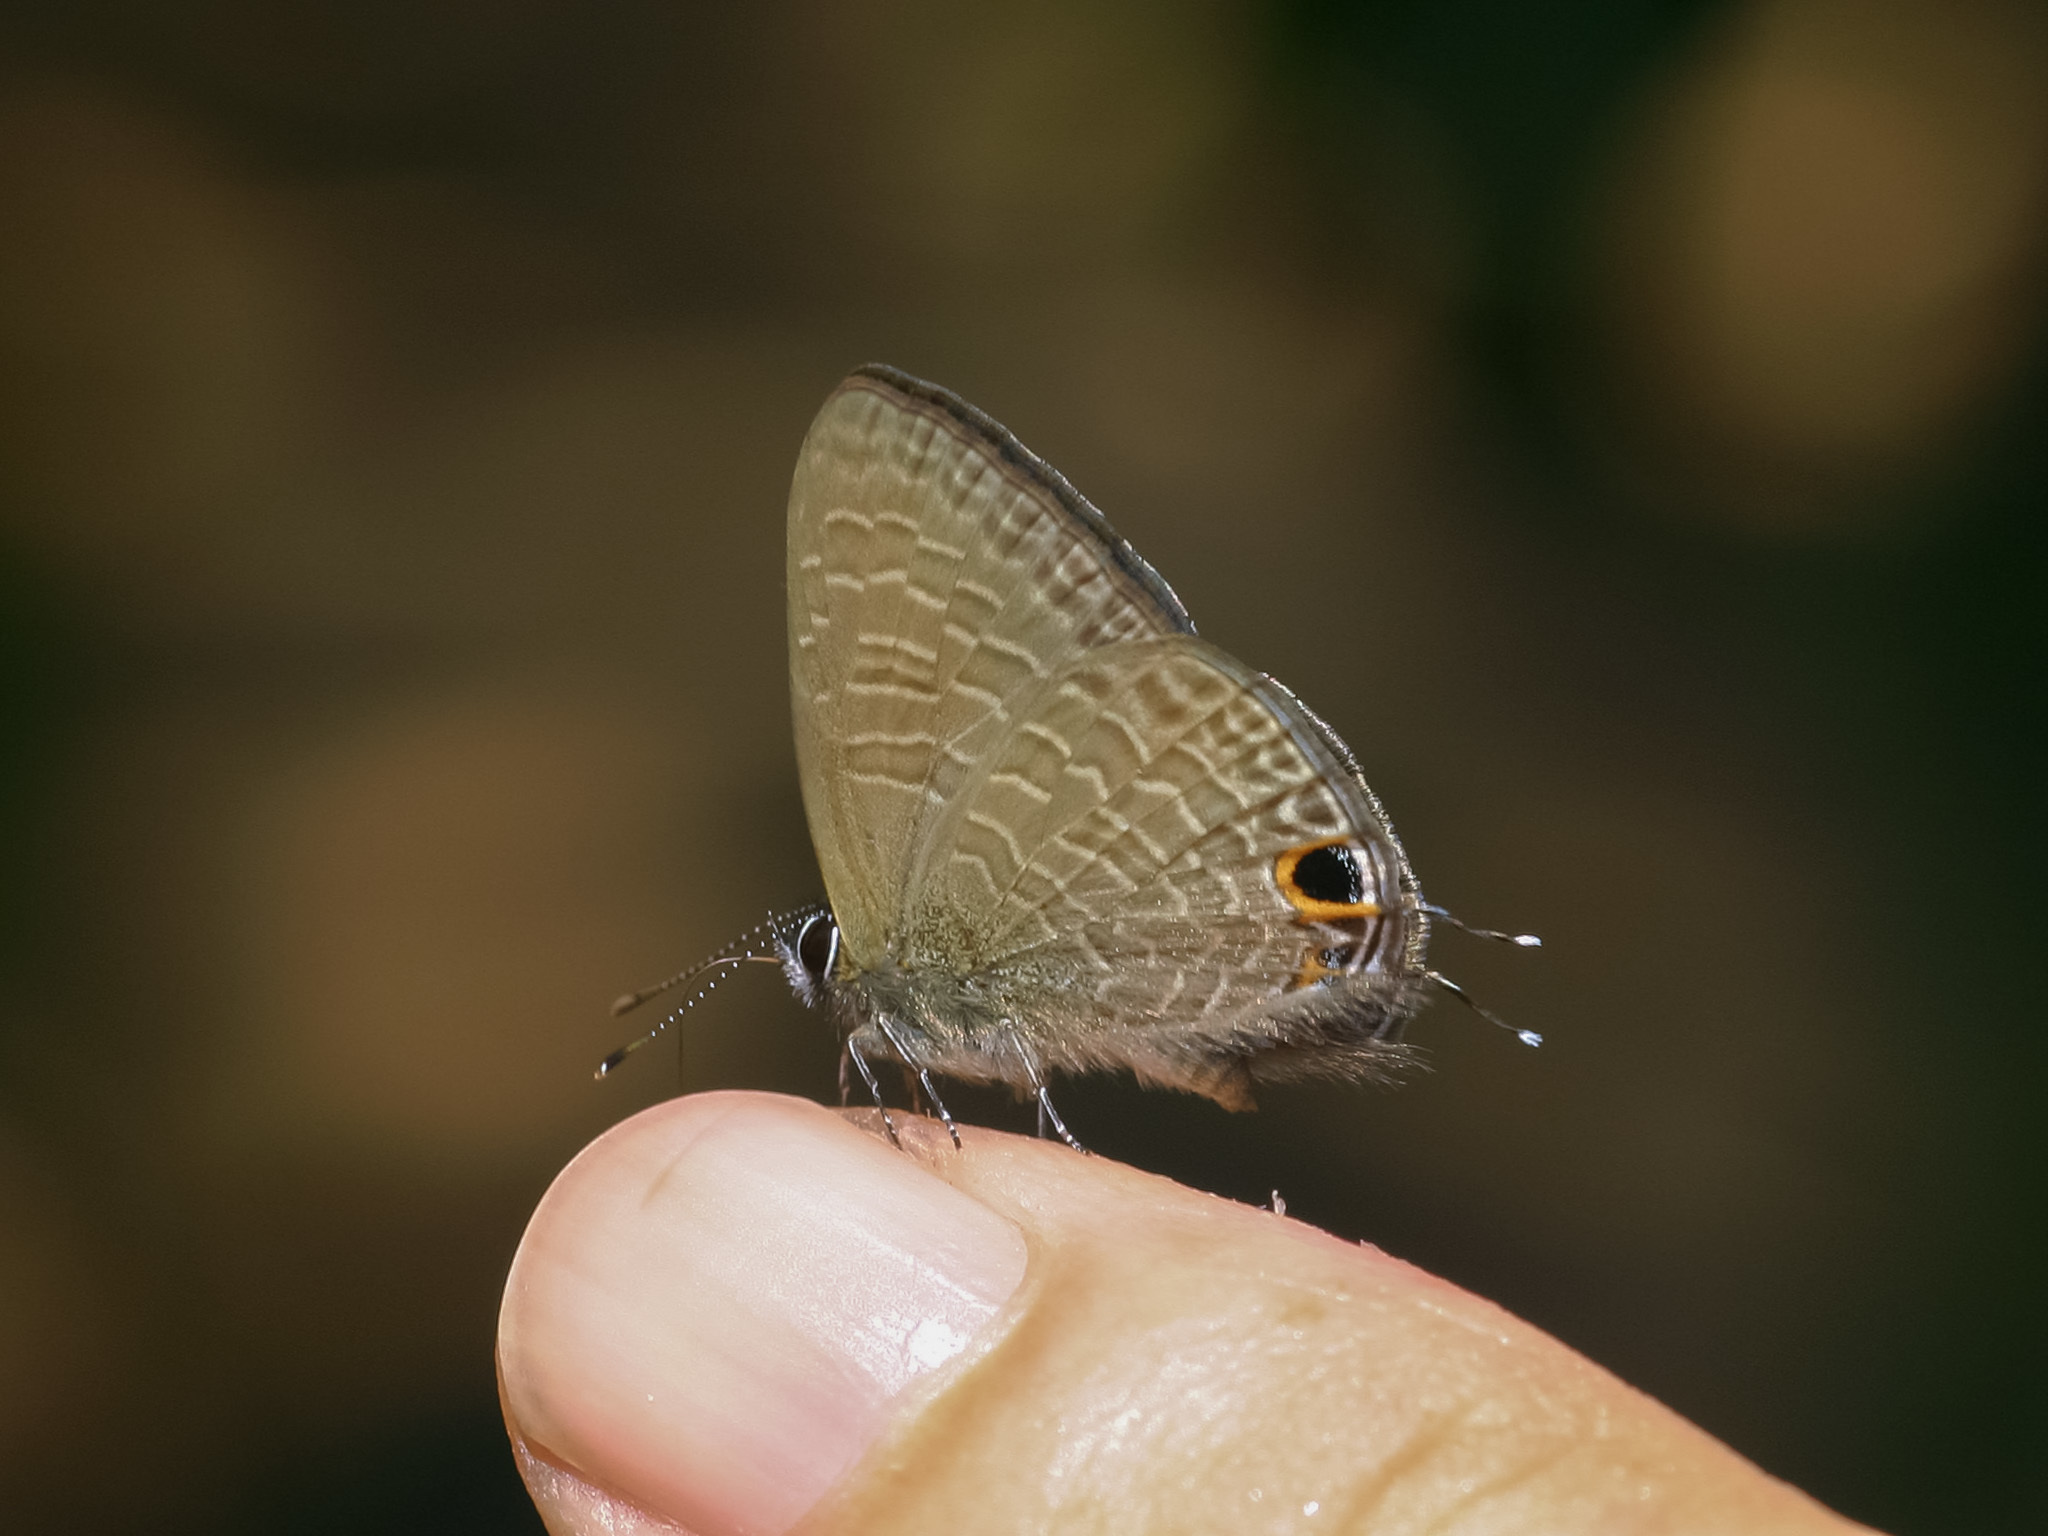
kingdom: Animalia
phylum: Arthropoda
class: Insecta
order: Lepidoptera
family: Lycaenidae
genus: Ionolyce
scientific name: Ionolyce helicon
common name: Pointed line blue
